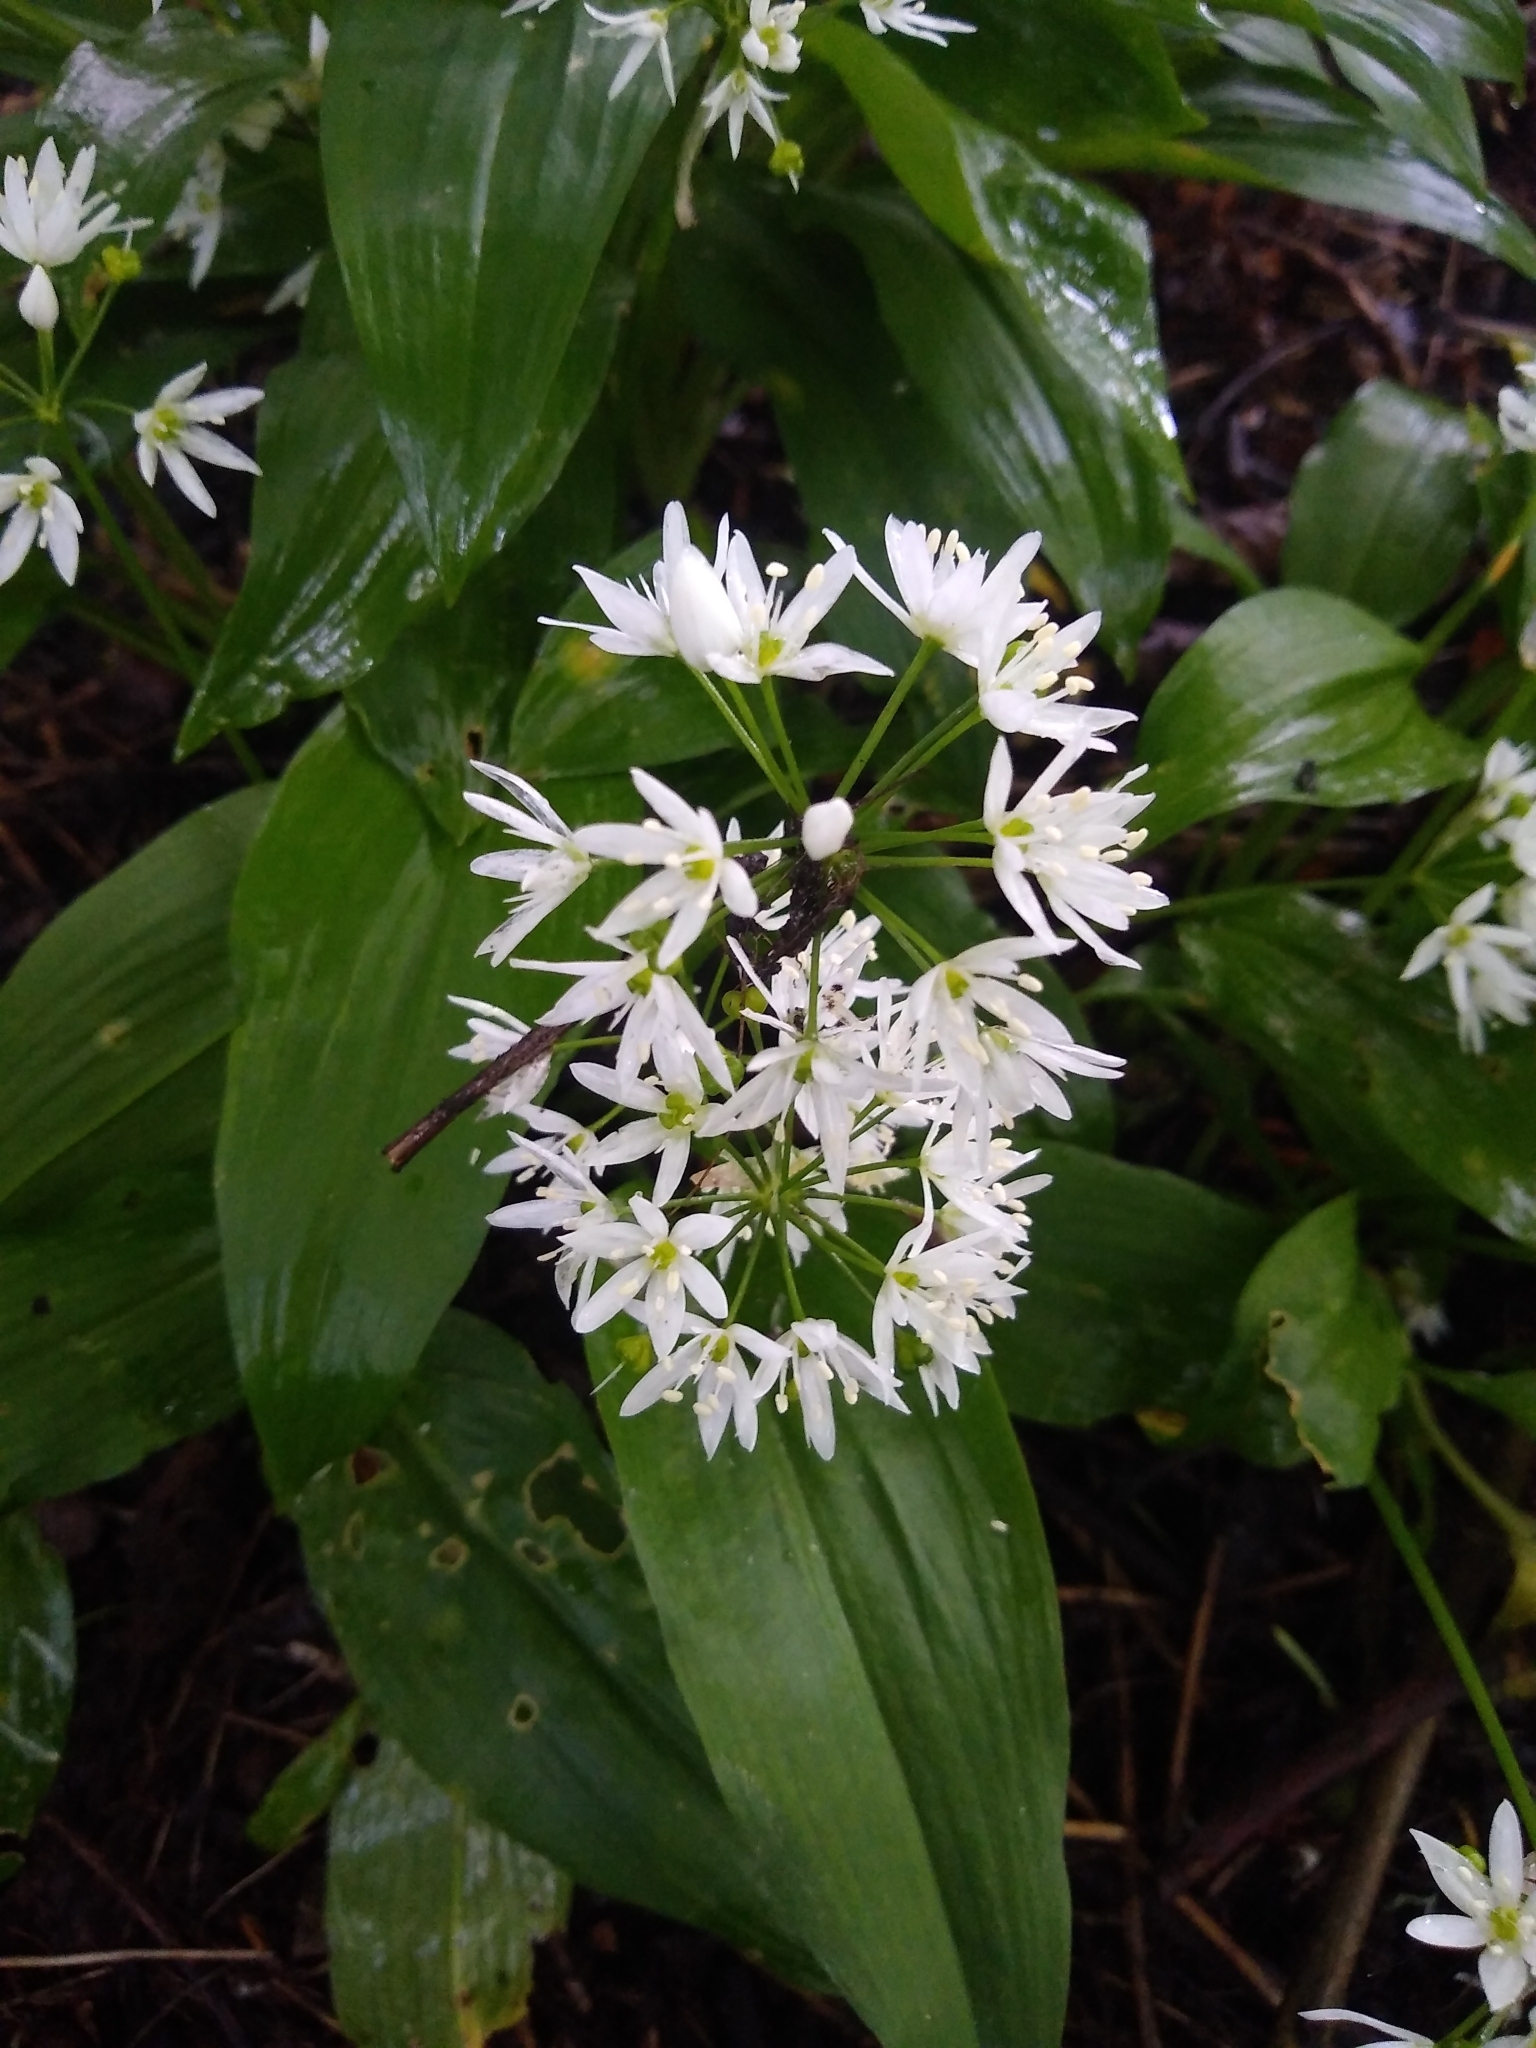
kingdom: Plantae
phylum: Tracheophyta
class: Liliopsida
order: Asparagales
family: Amaryllidaceae
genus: Allium
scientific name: Allium ursinum
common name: Ramsons
